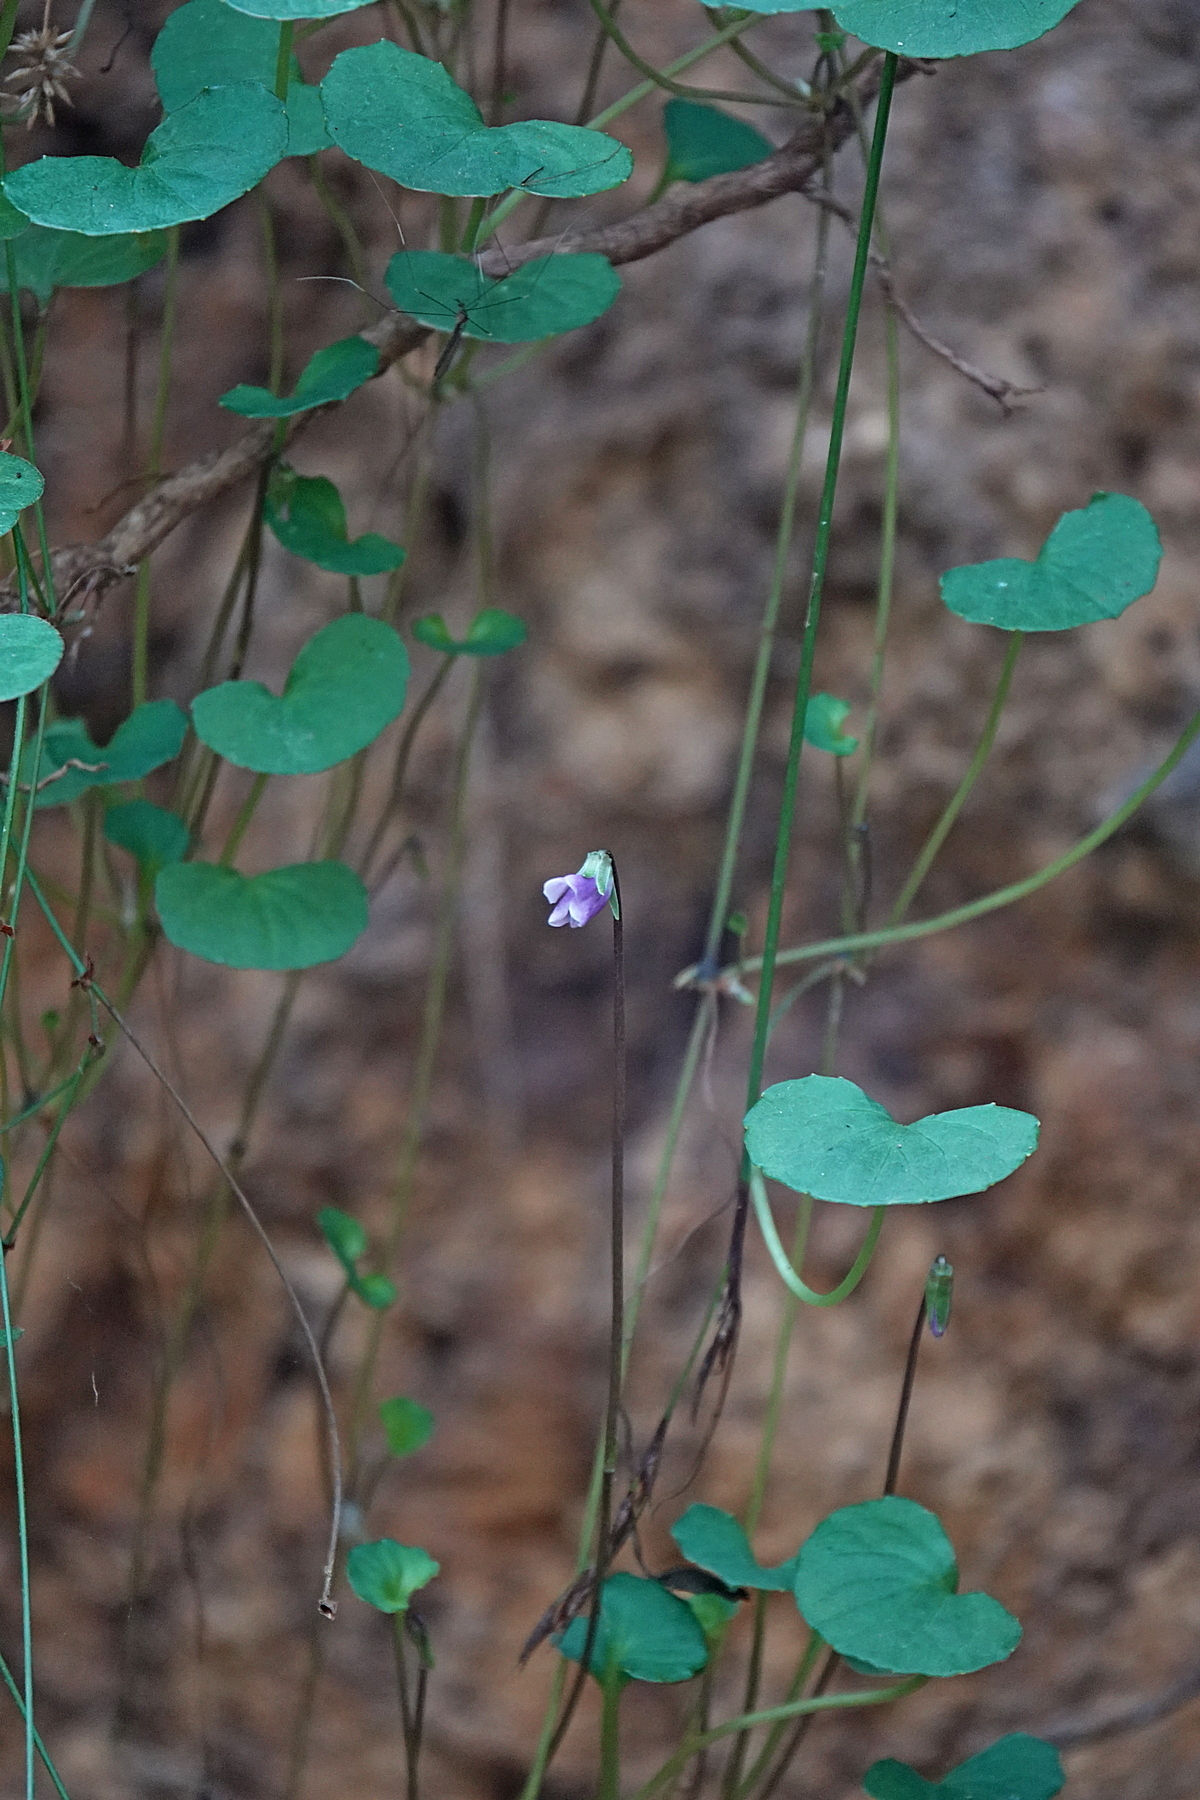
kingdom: Plantae
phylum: Tracheophyta
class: Magnoliopsida
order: Malpighiales
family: Violaceae
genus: Viola
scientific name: Viola hederacea
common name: Australian violet
